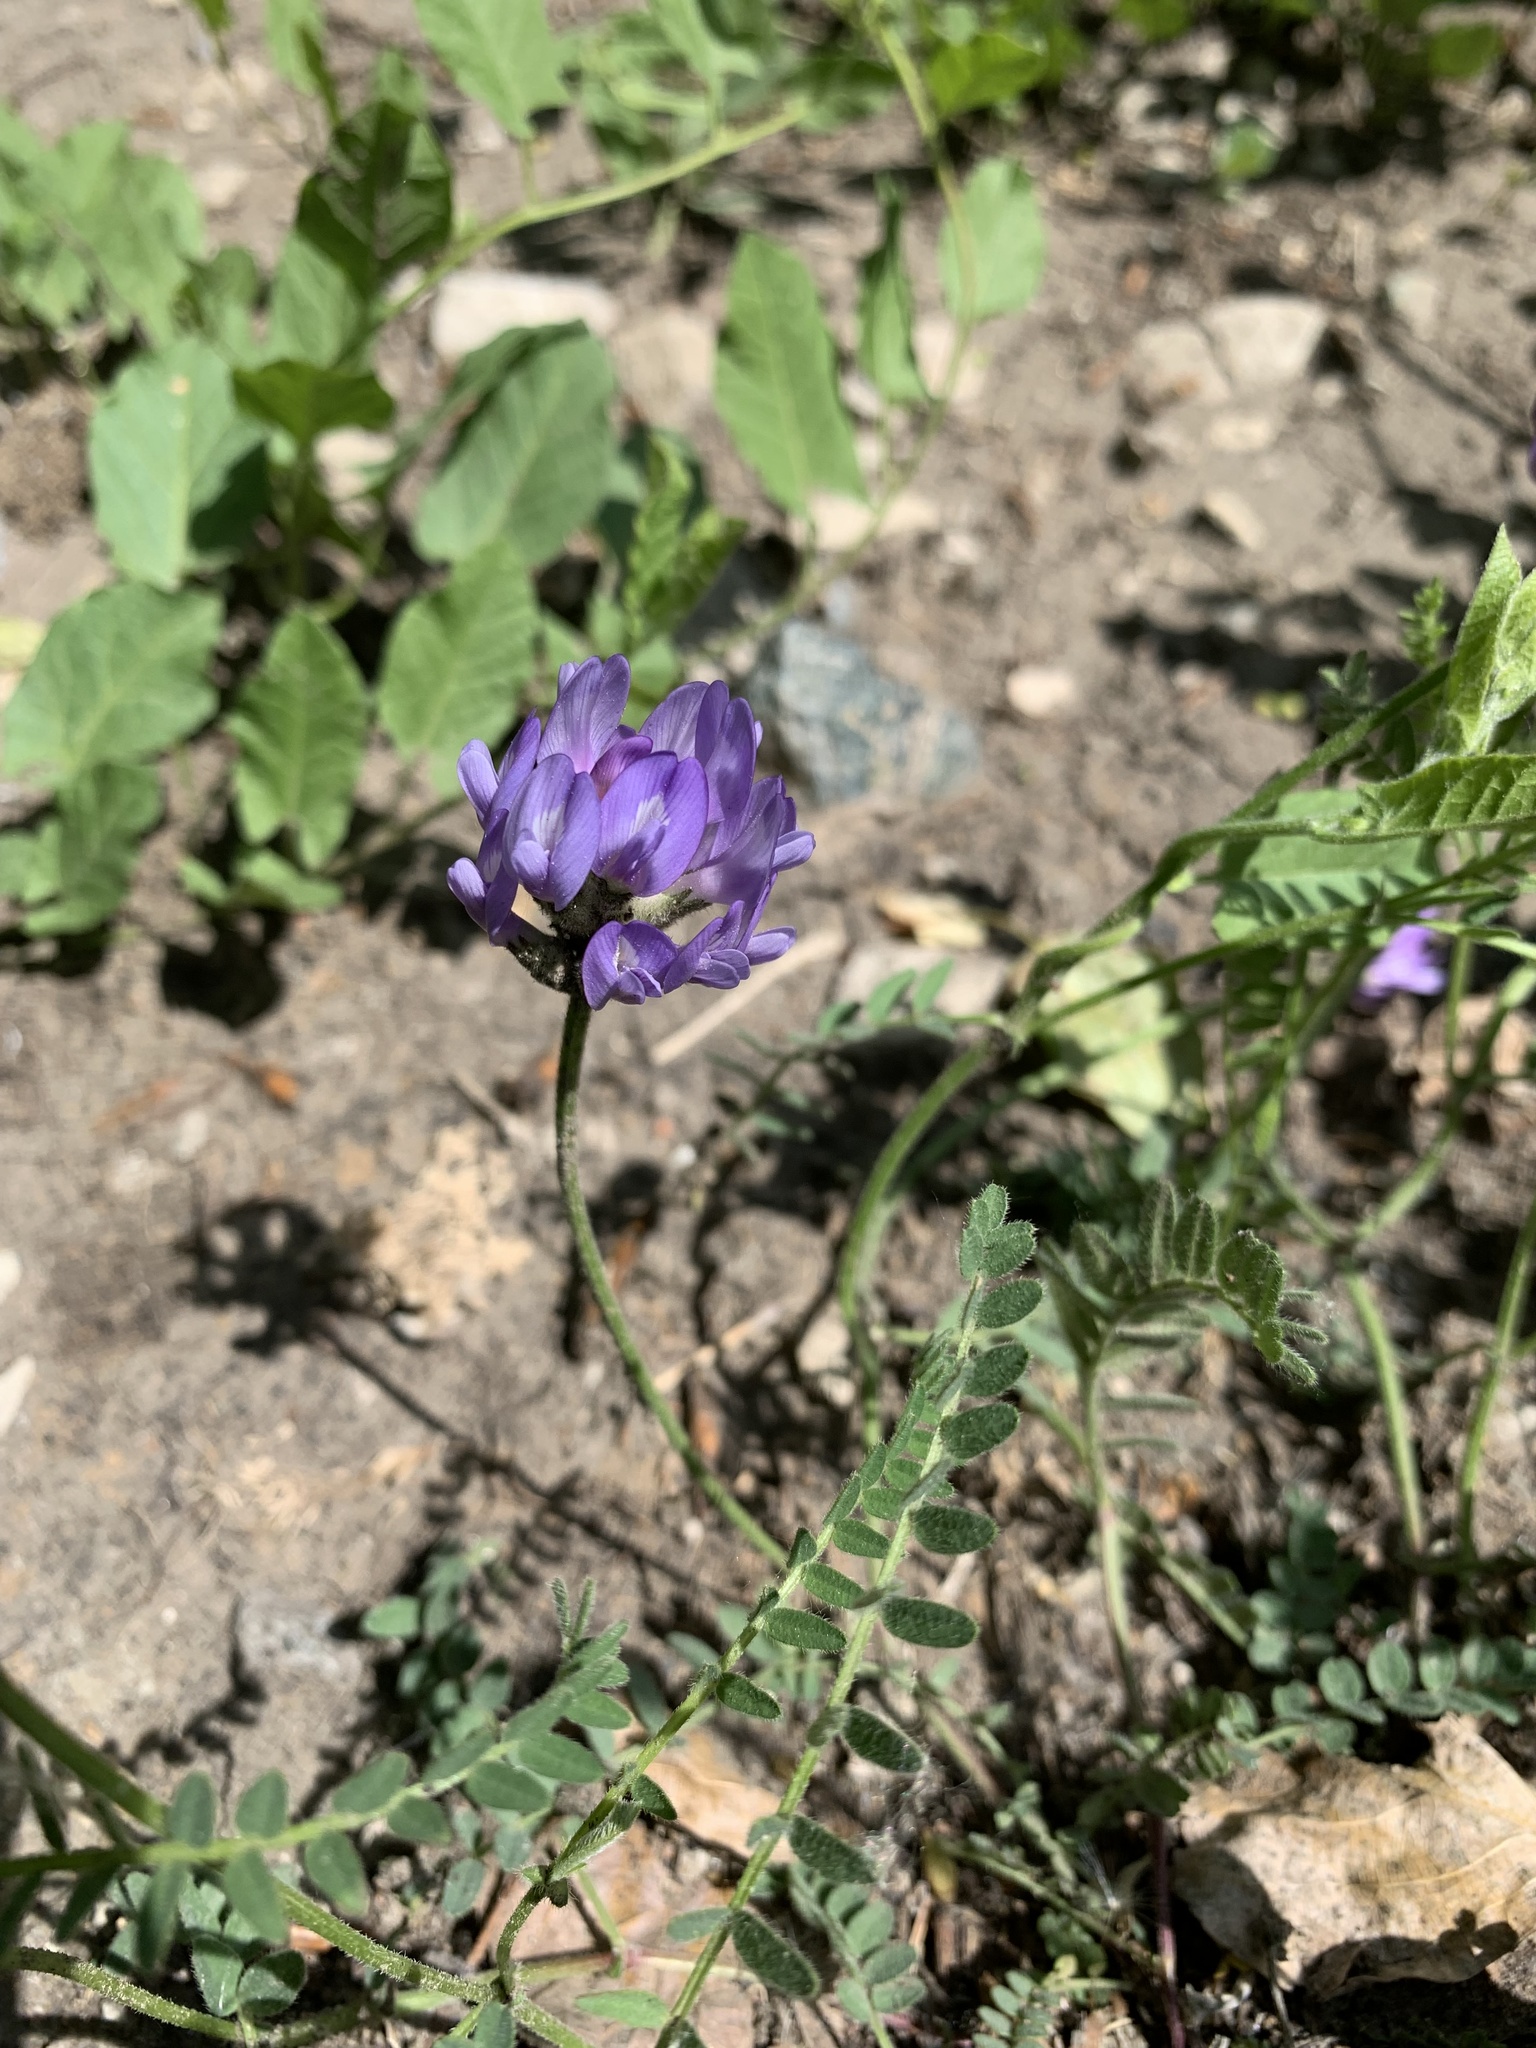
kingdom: Plantae
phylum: Tracheophyta
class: Magnoliopsida
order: Fabales
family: Fabaceae
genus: Astragalus
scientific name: Astragalus danicus
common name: Purple milk-vetch
